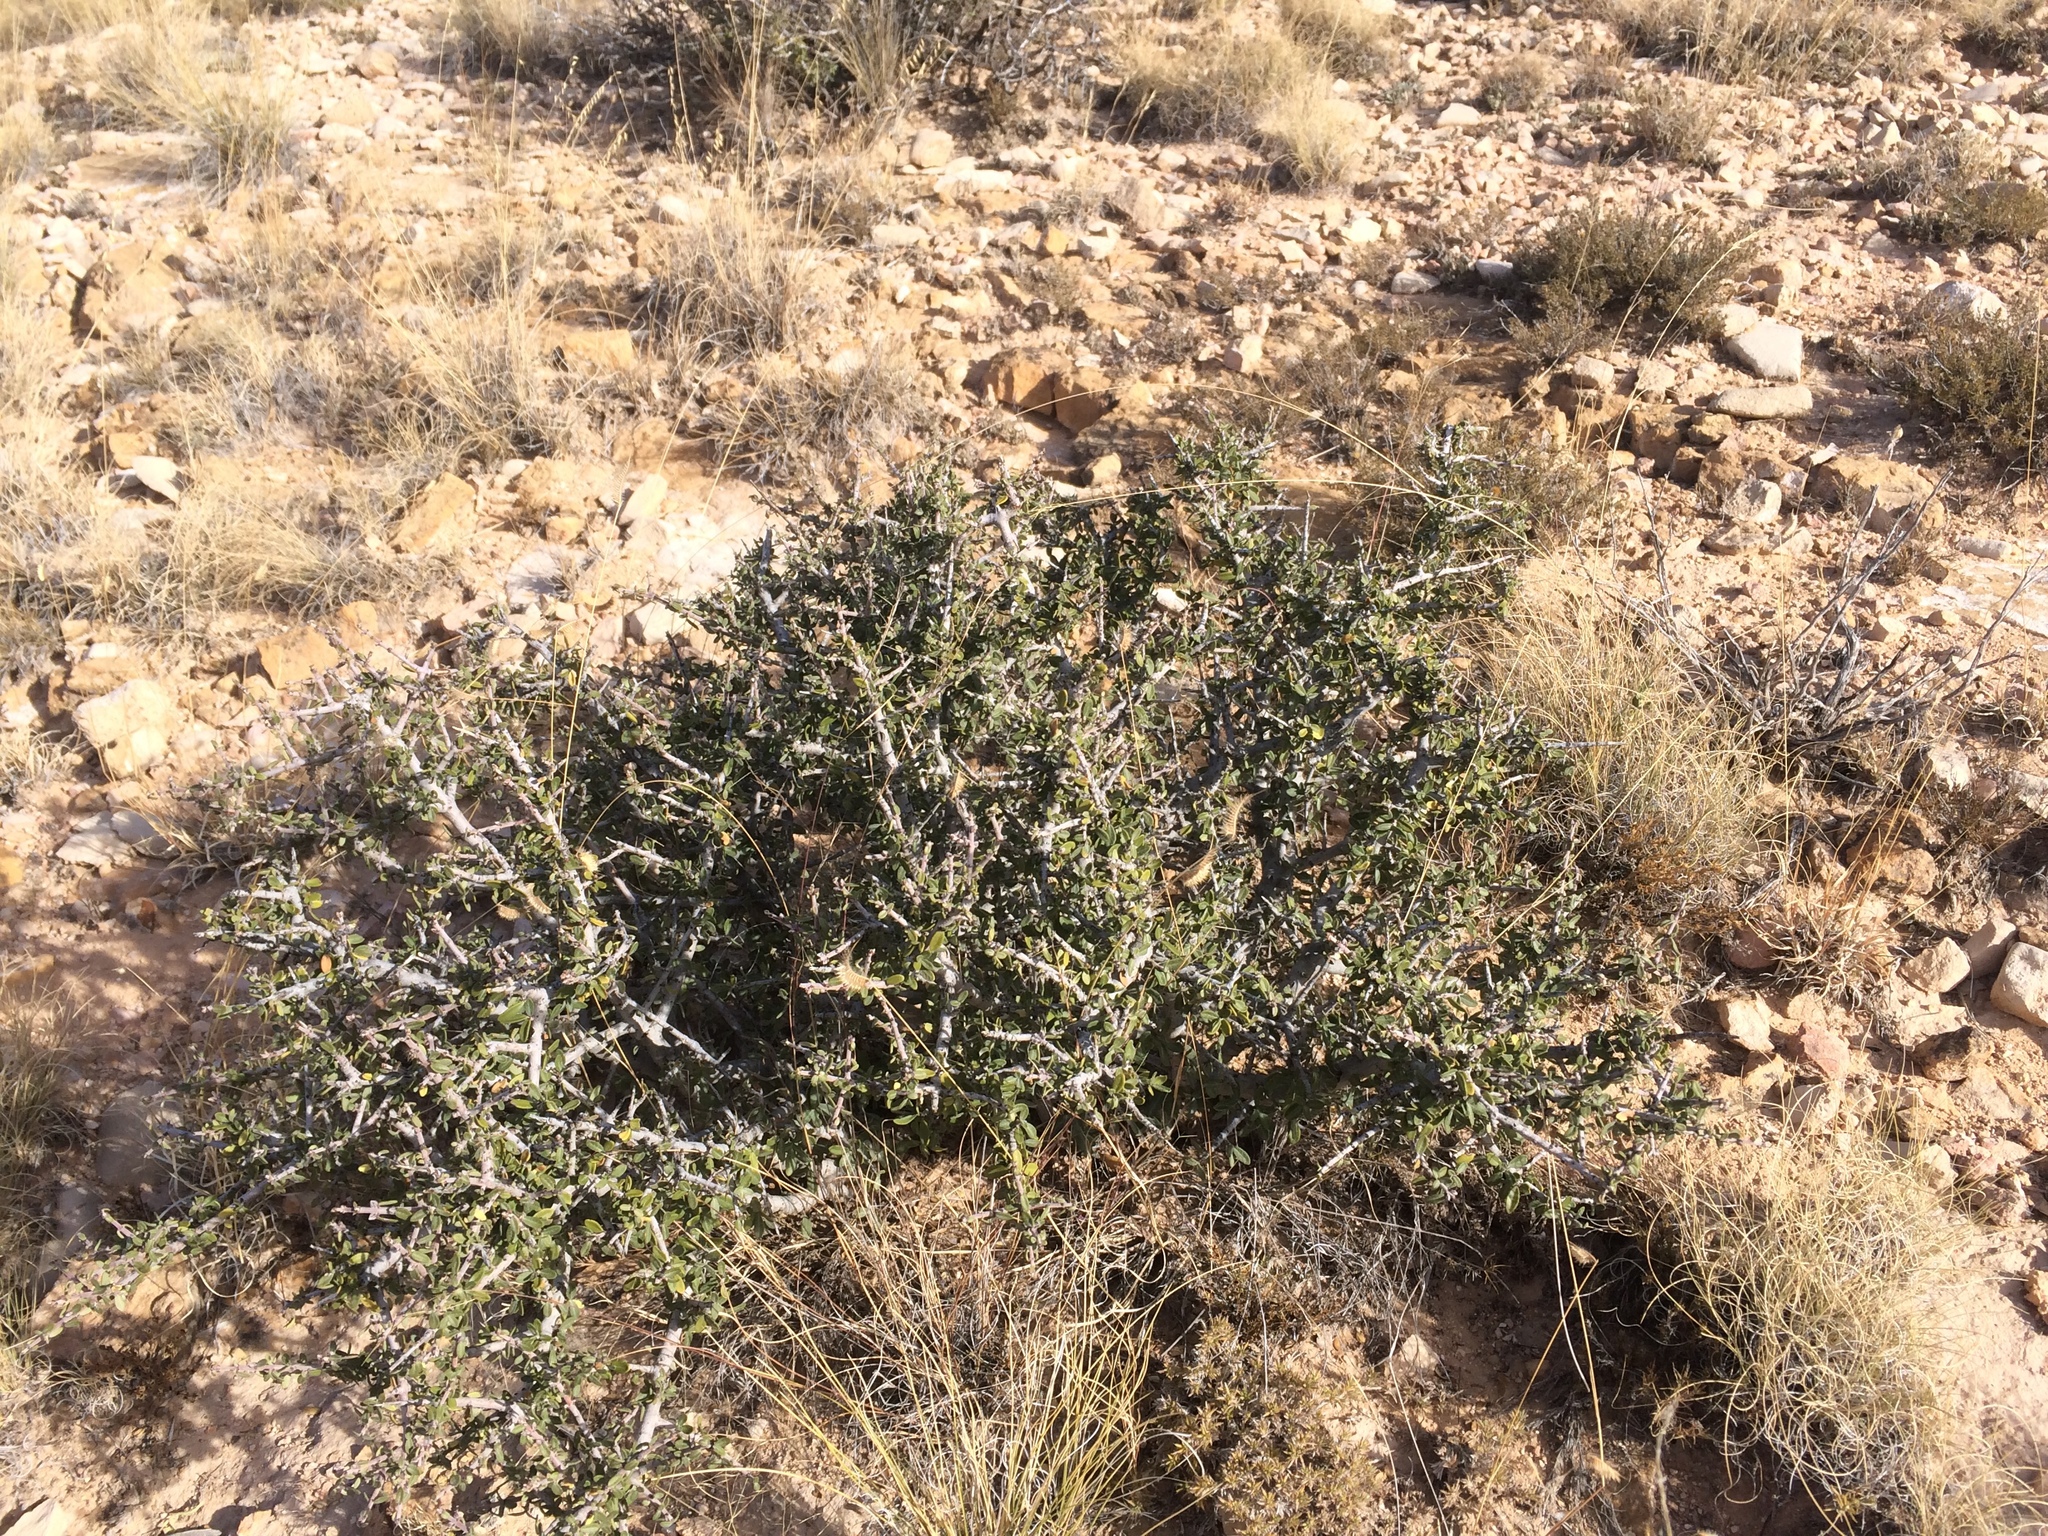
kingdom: Plantae
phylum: Tracheophyta
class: Magnoliopsida
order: Rosales
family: Rhamnaceae
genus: Ceanothus
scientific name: Ceanothus pauciflorus
